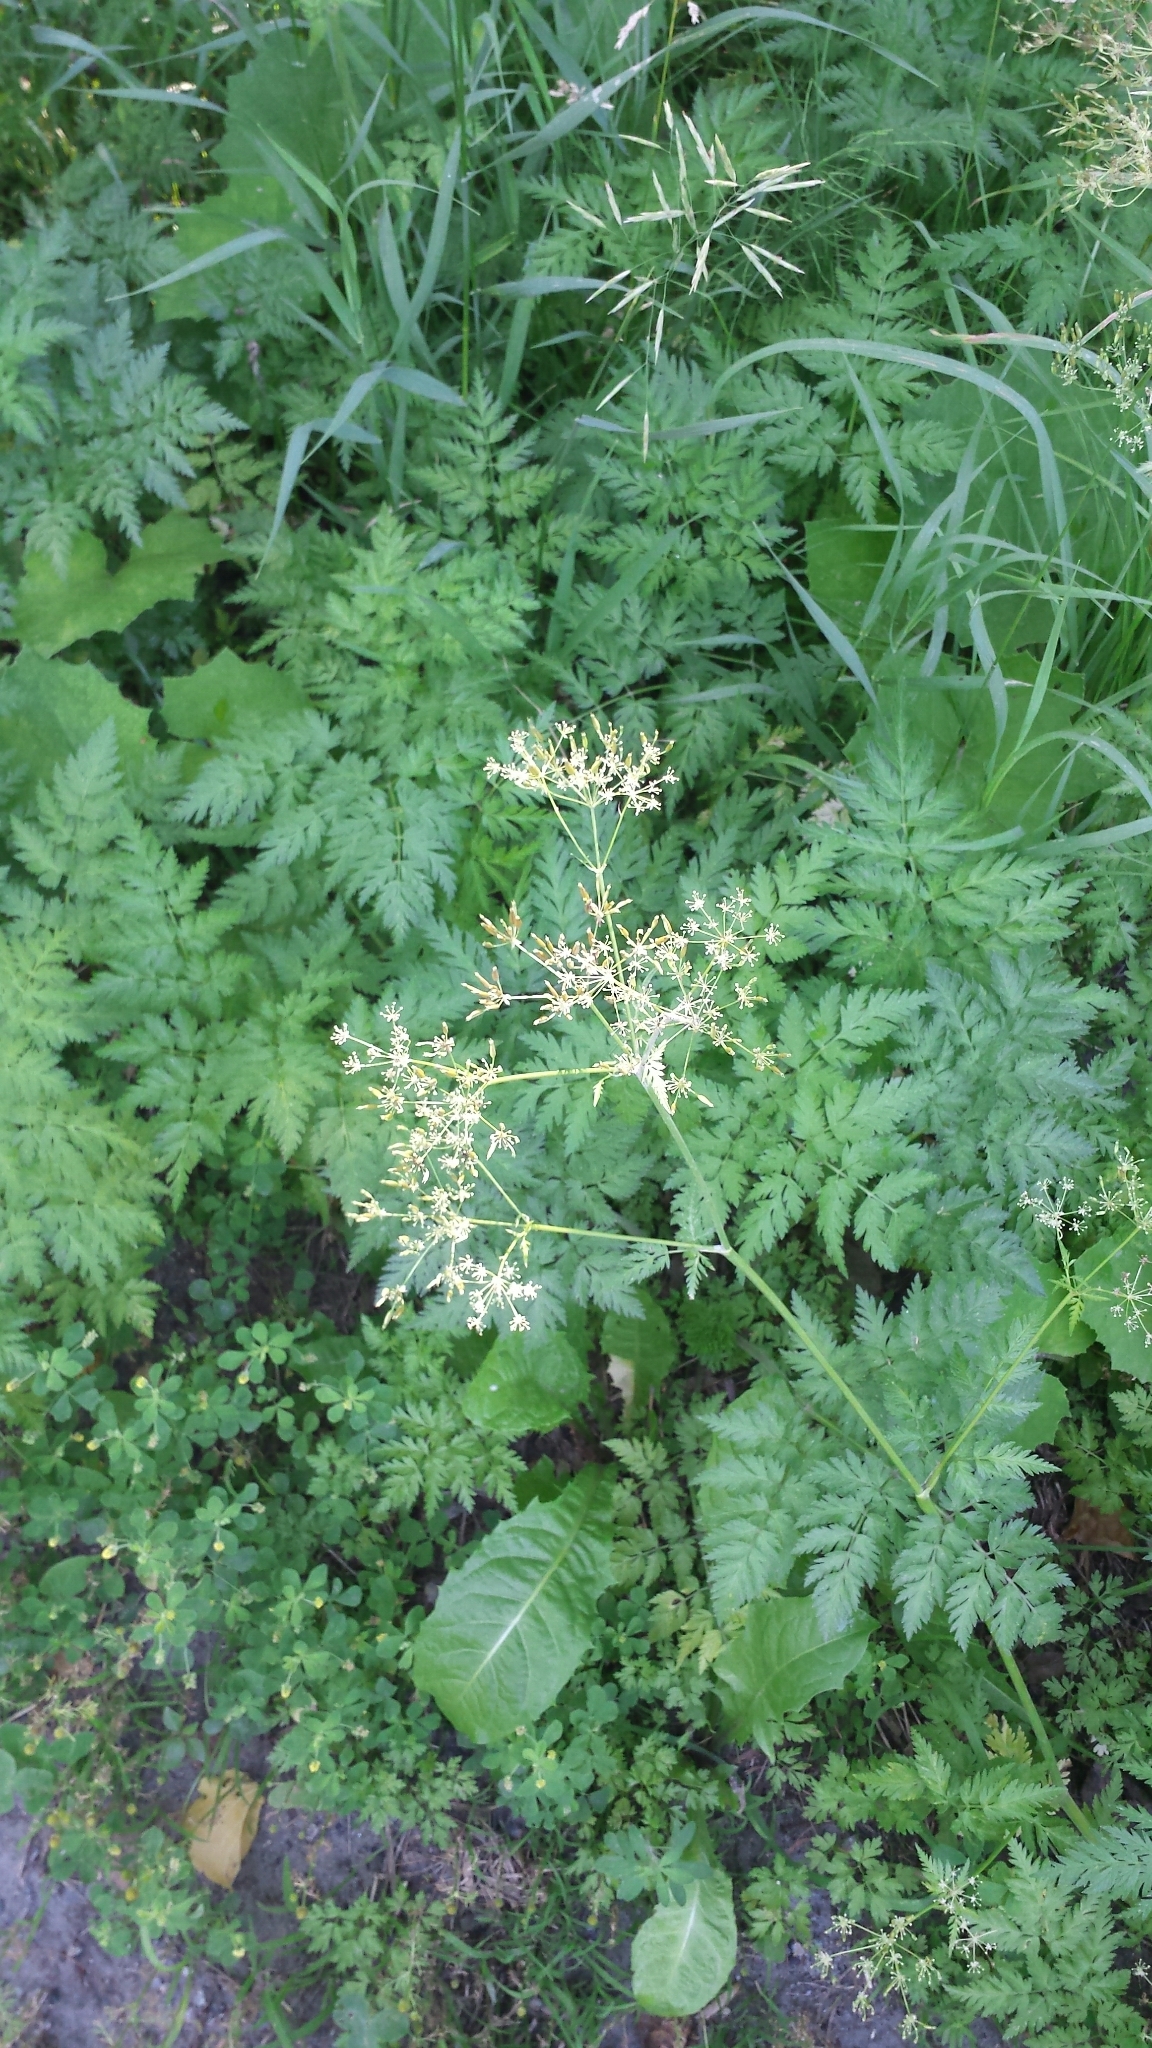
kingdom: Plantae
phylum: Tracheophyta
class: Magnoliopsida
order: Apiales
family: Apiaceae
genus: Anthriscus
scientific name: Anthriscus sylvestris
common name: Cow parsley
